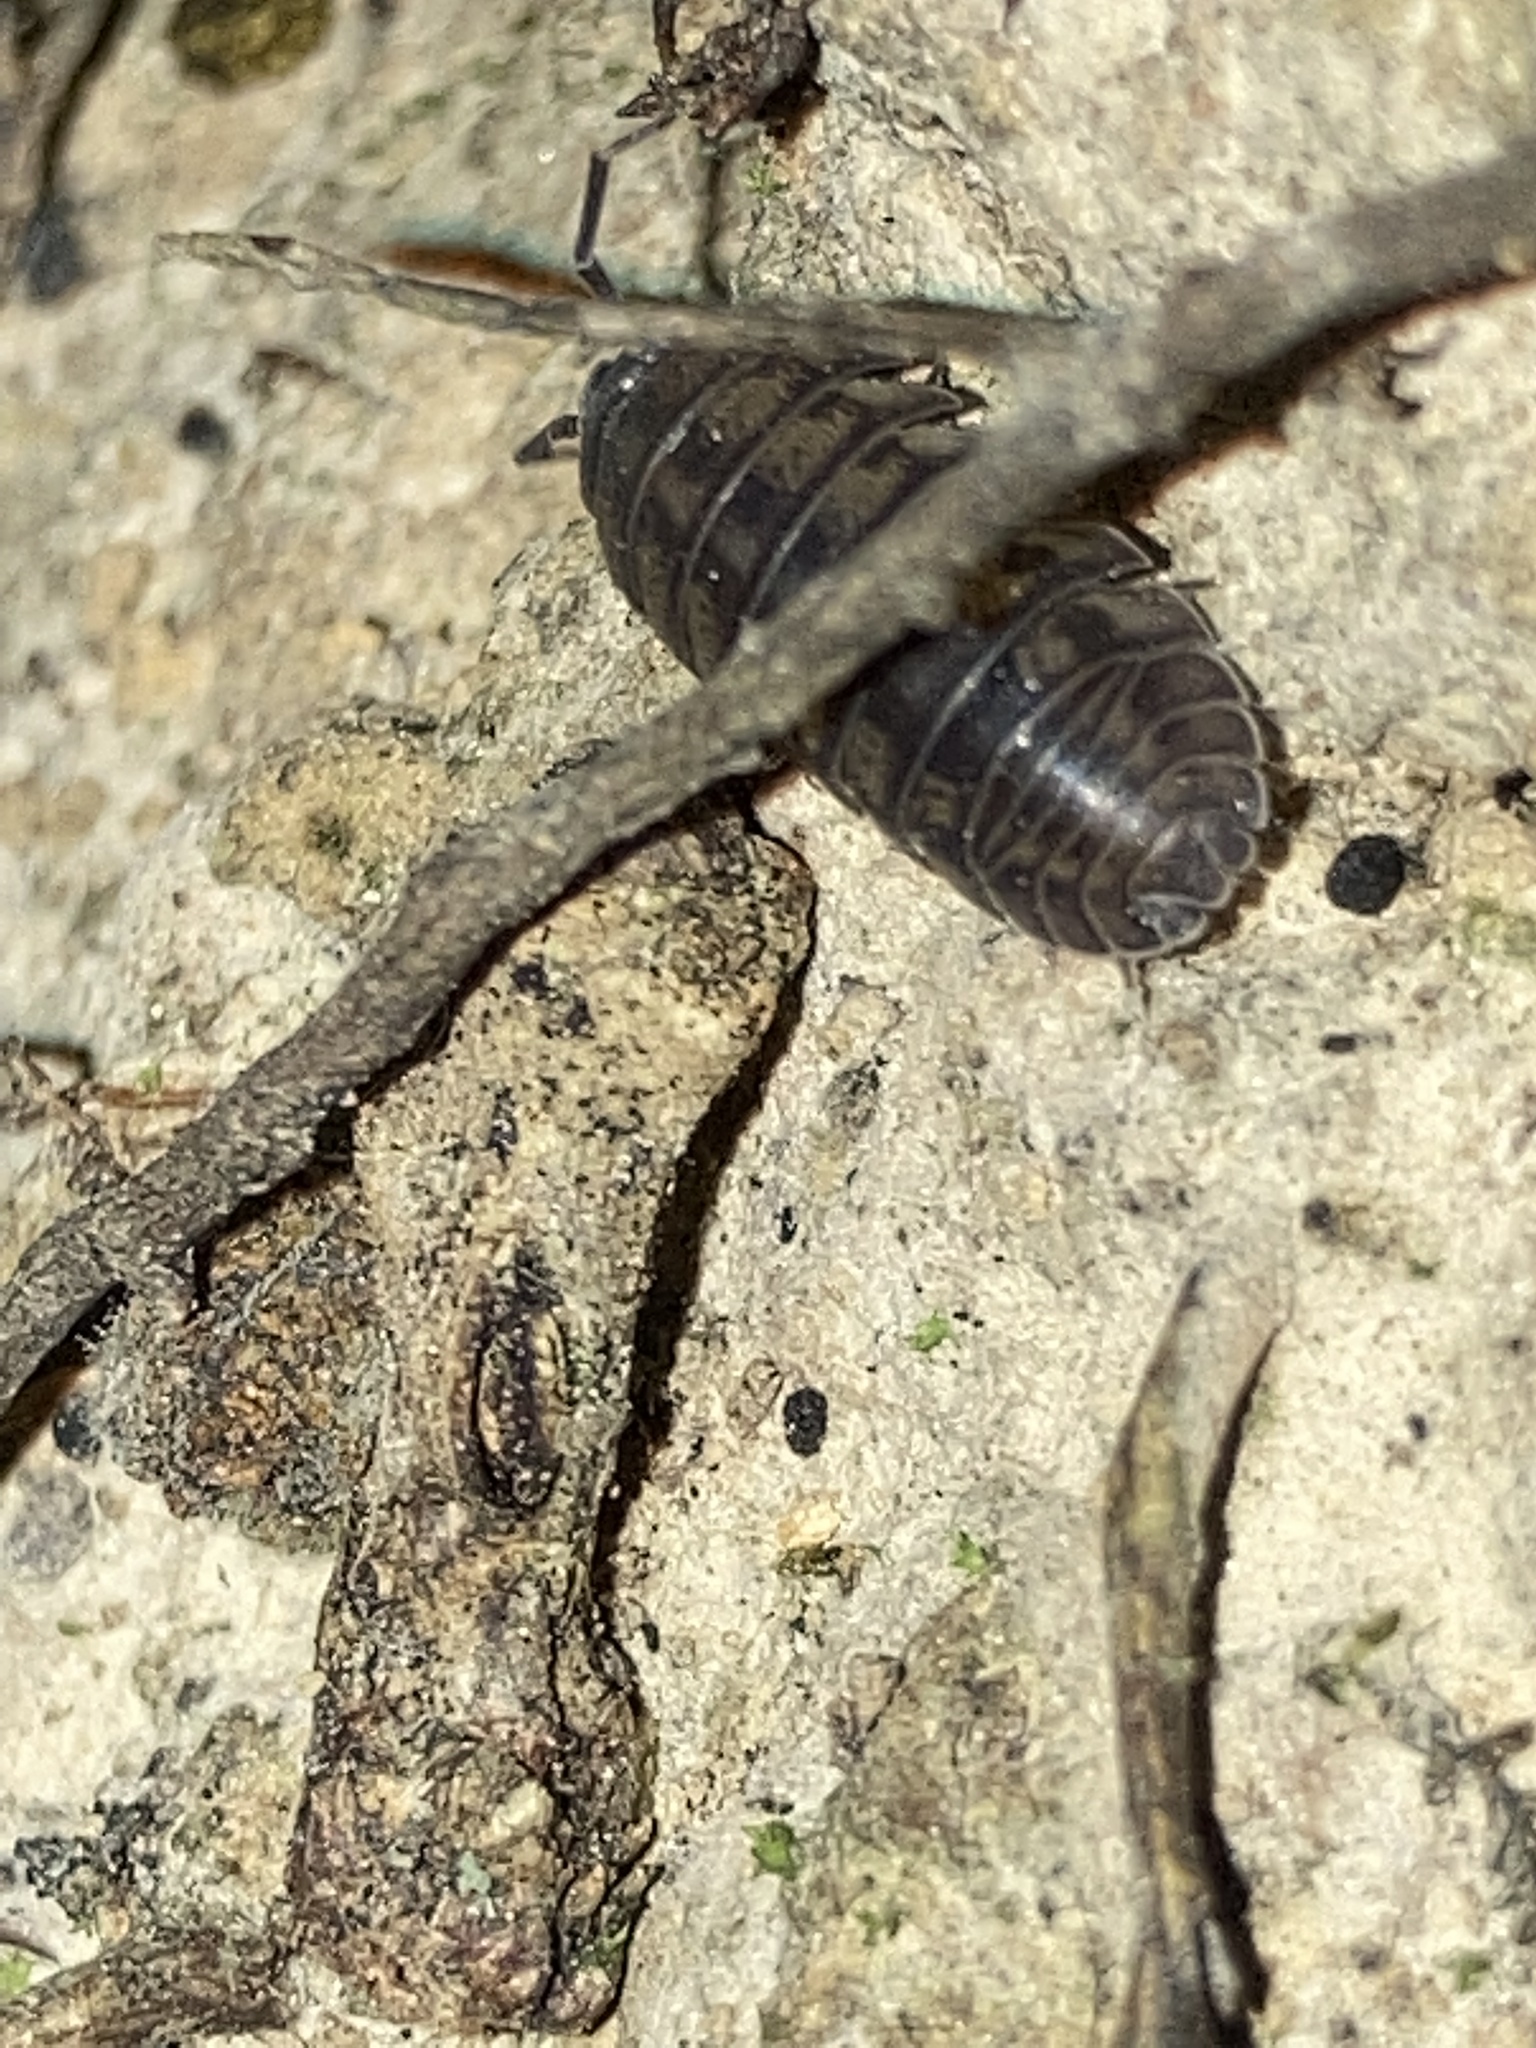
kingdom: Animalia
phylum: Arthropoda
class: Malacostraca
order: Isopoda
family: Armadillidiidae
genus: Armadillidium
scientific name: Armadillidium nasatum
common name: Isopod
